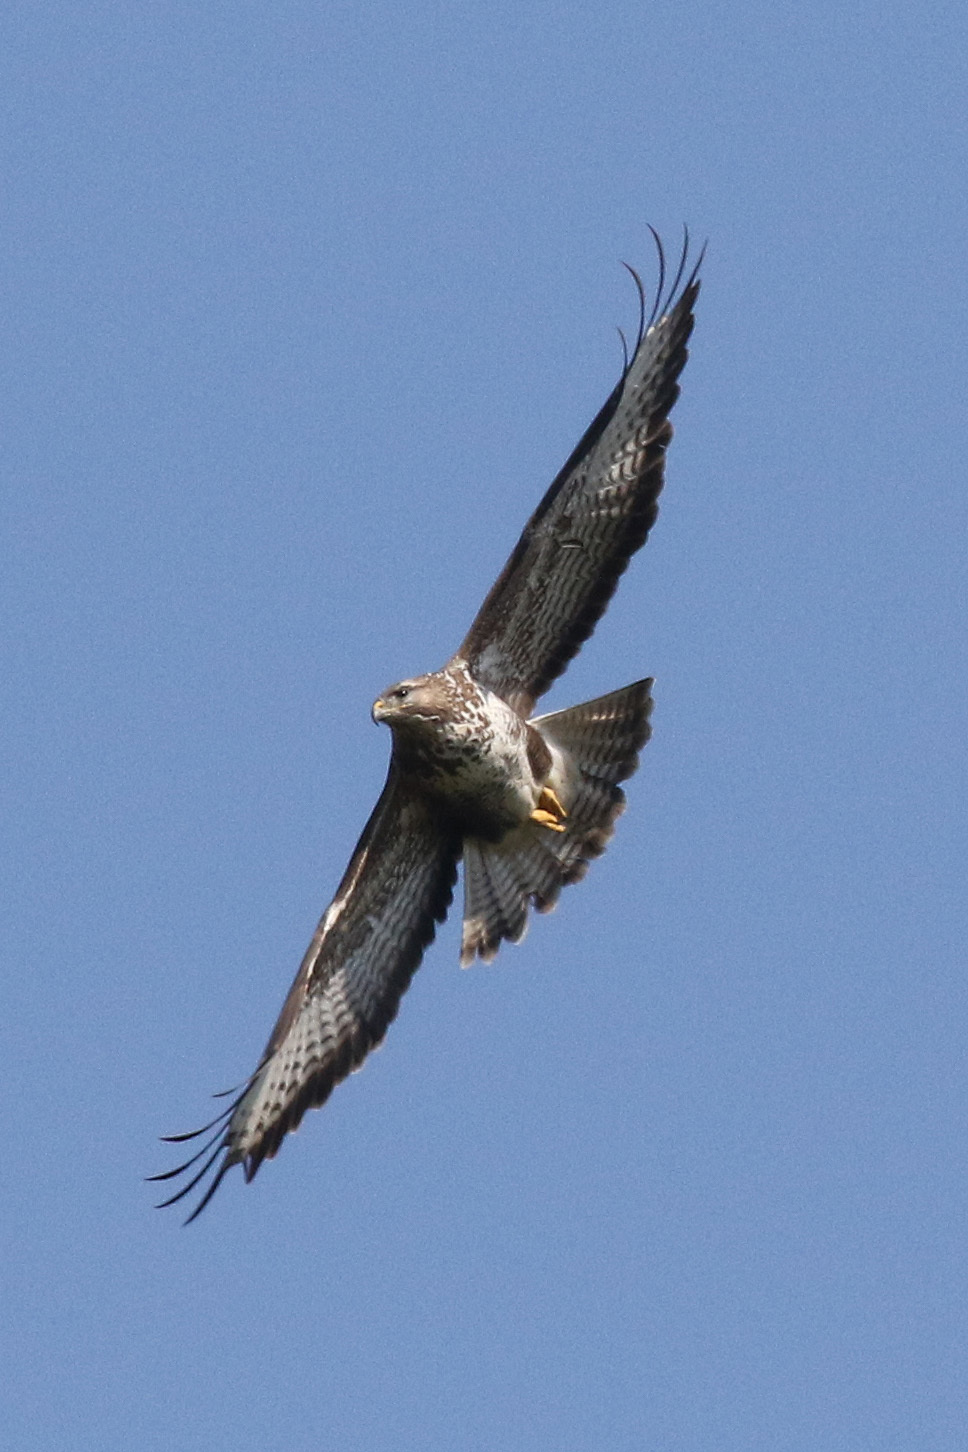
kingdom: Animalia
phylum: Chordata
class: Aves
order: Accipitriformes
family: Accipitridae
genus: Buteo
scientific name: Buteo buteo
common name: Common buzzard
